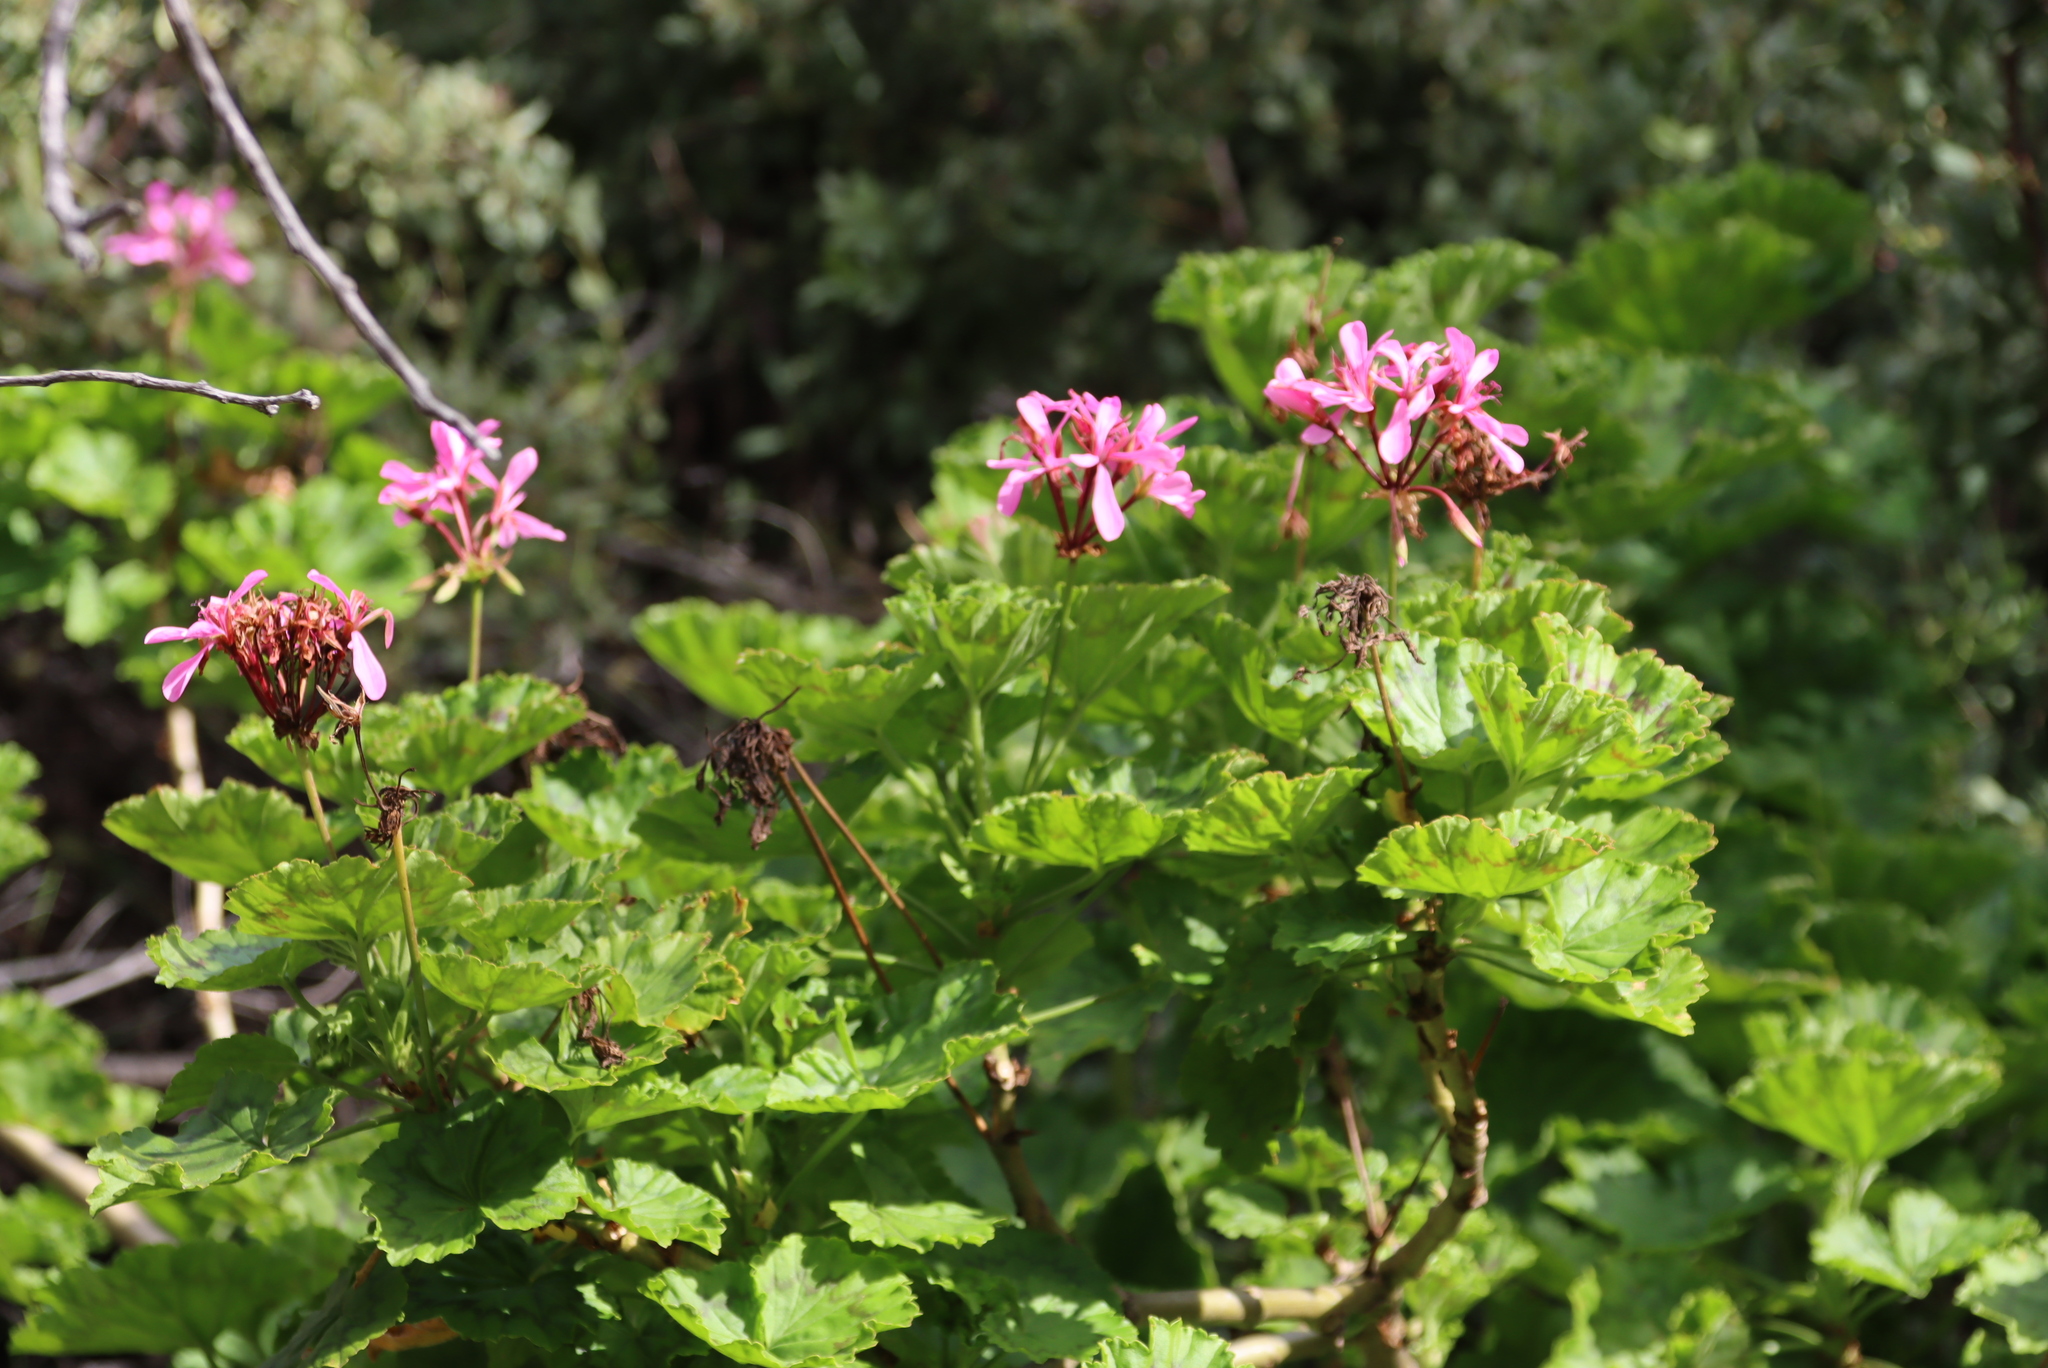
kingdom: Plantae
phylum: Tracheophyta
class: Magnoliopsida
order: Geraniales
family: Geraniaceae
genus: Pelargonium
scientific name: Pelargonium zonale
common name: Horseshoe geranium
